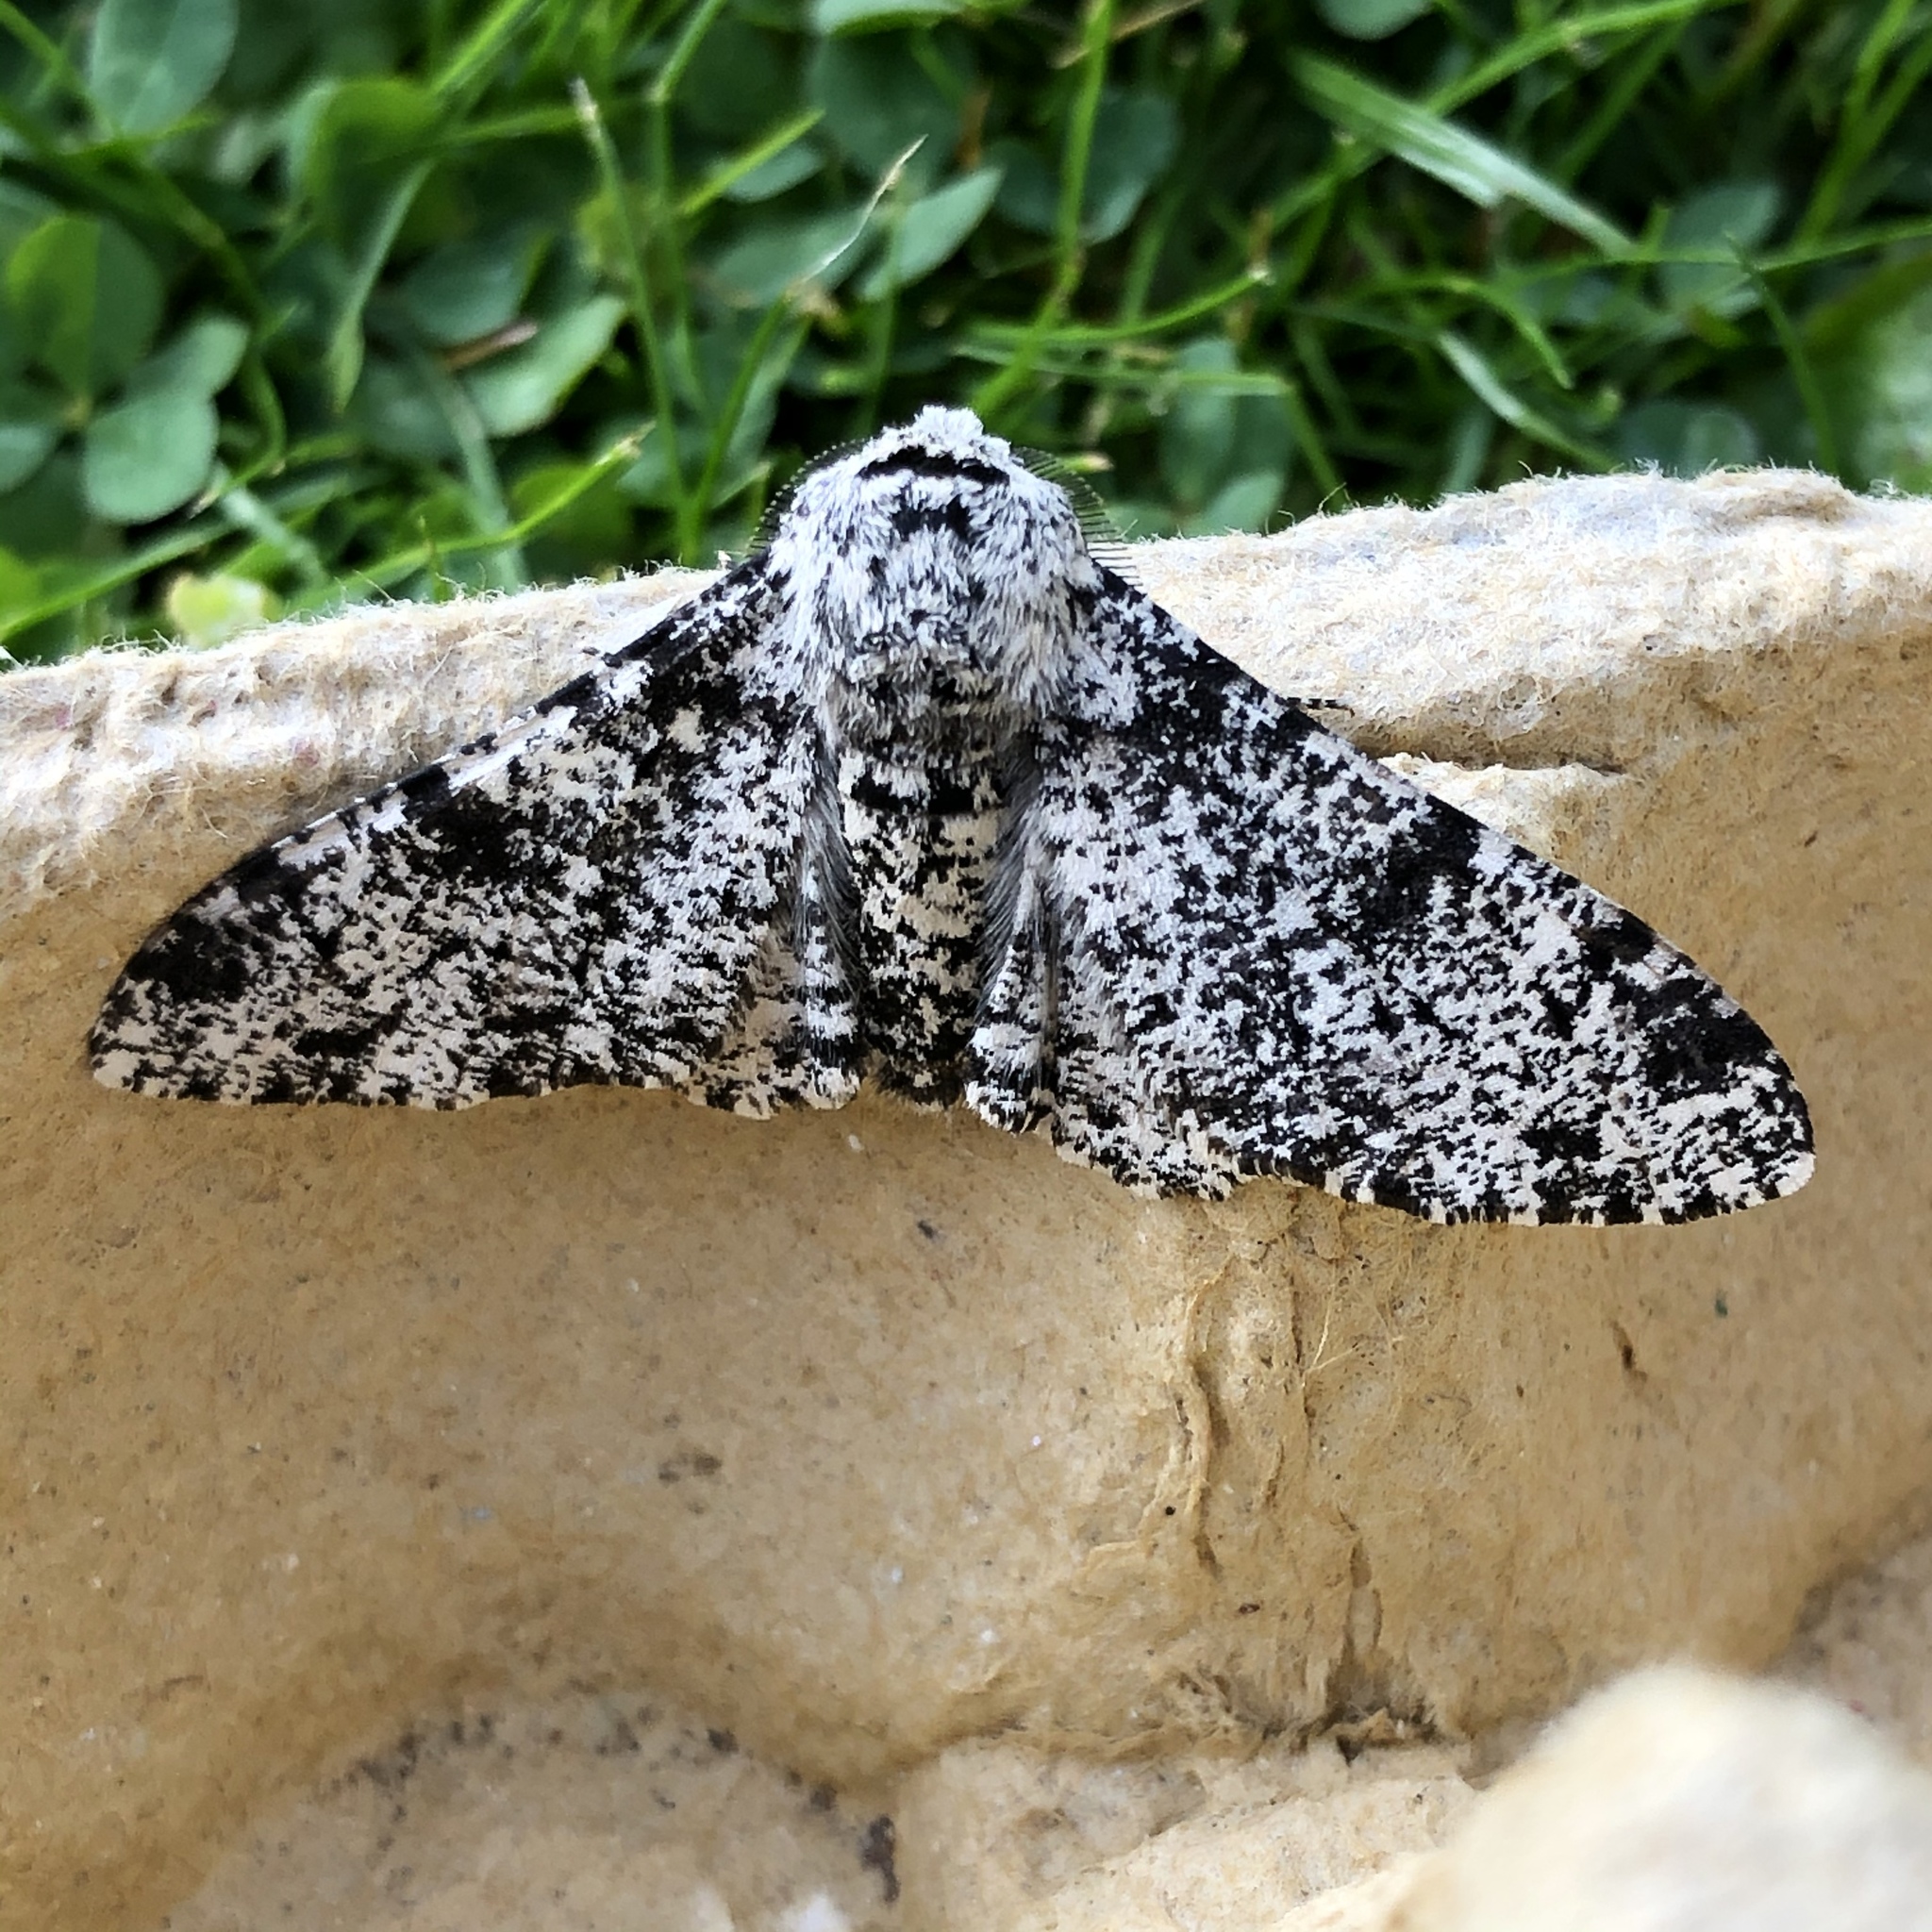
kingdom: Animalia
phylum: Arthropoda
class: Insecta
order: Lepidoptera
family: Geometridae
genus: Biston
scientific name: Biston betularia
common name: Peppered moth
